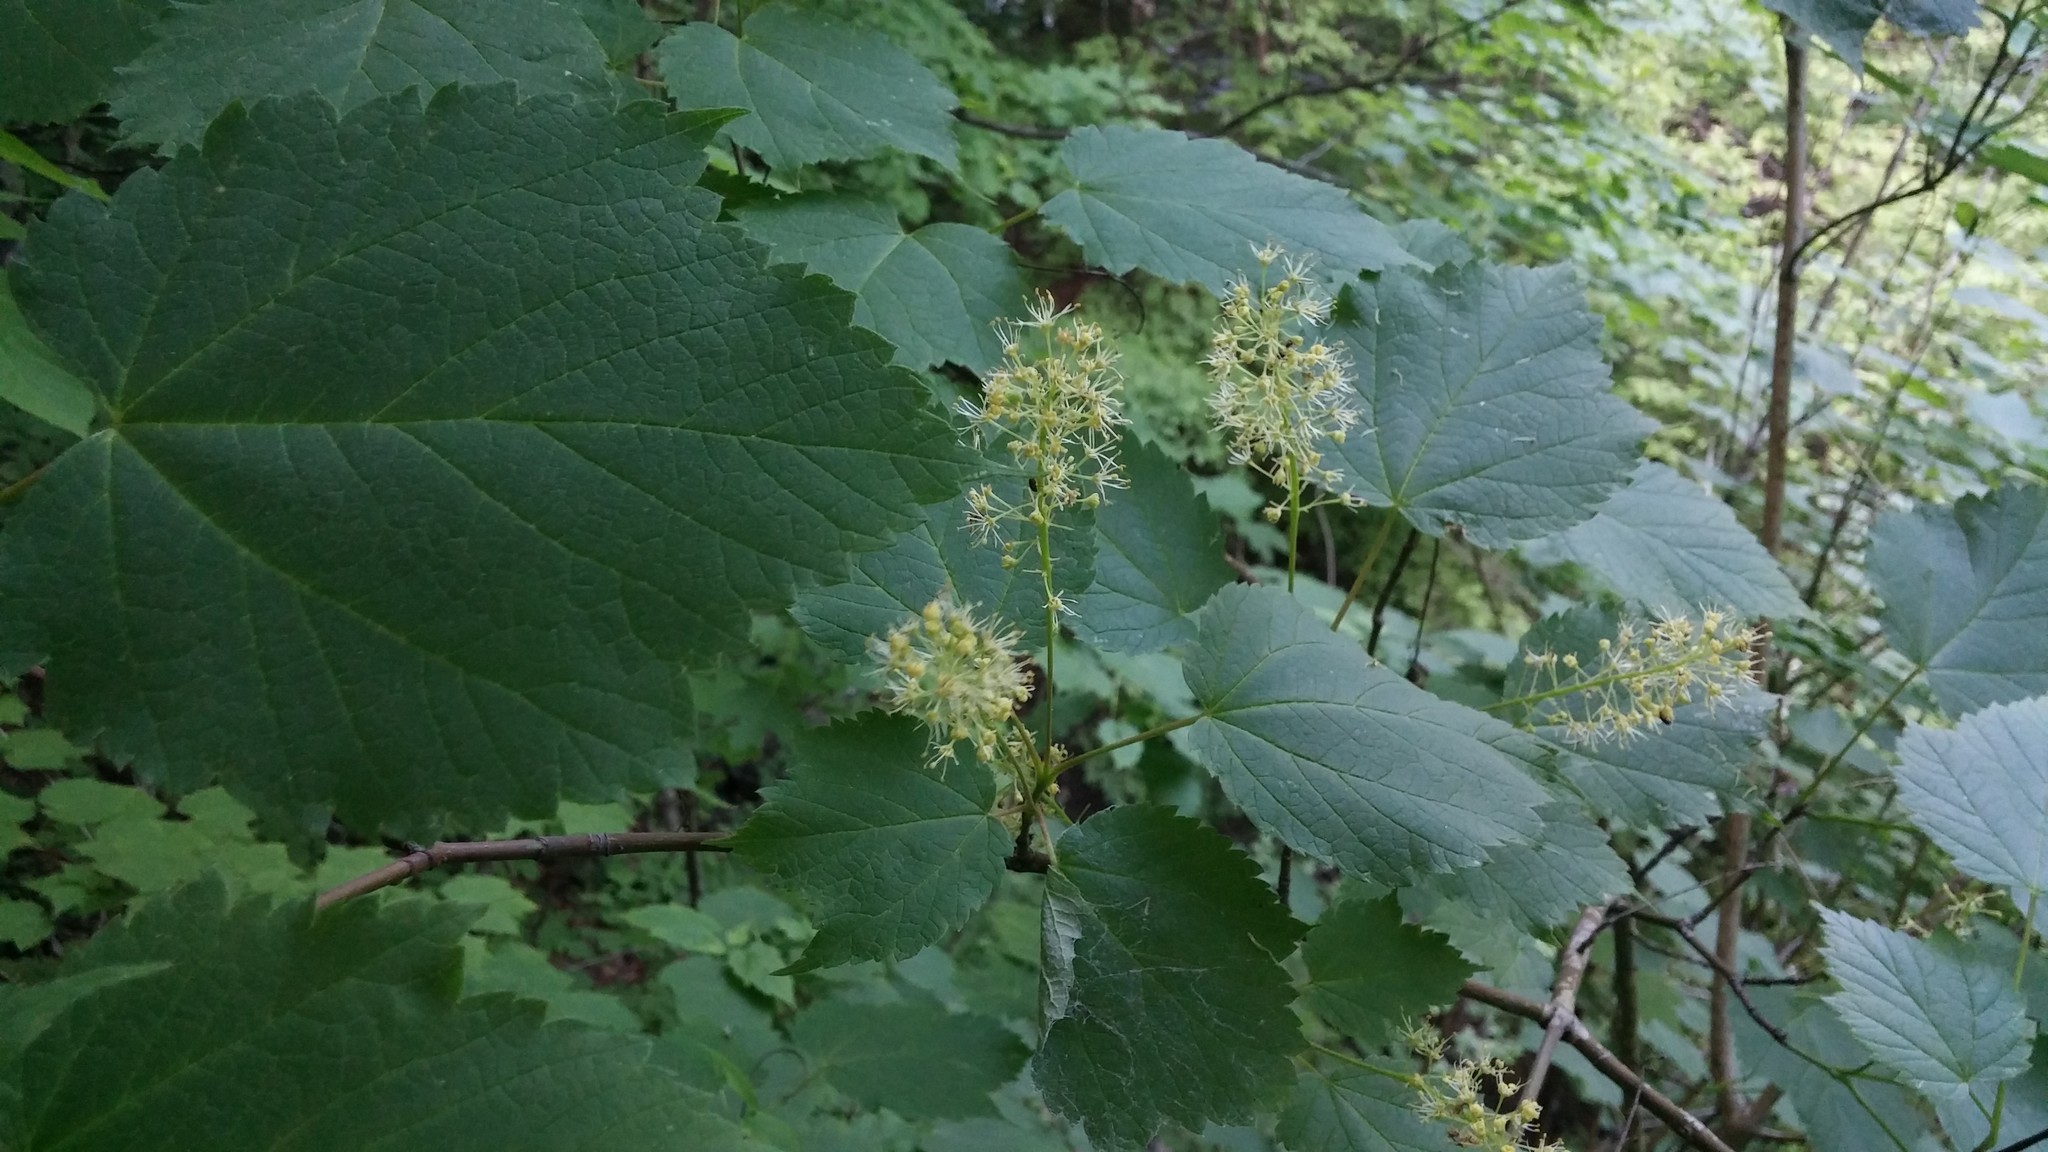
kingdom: Plantae
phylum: Tracheophyta
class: Magnoliopsida
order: Sapindales
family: Sapindaceae
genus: Acer
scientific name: Acer spicatum
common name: Mountain maple
